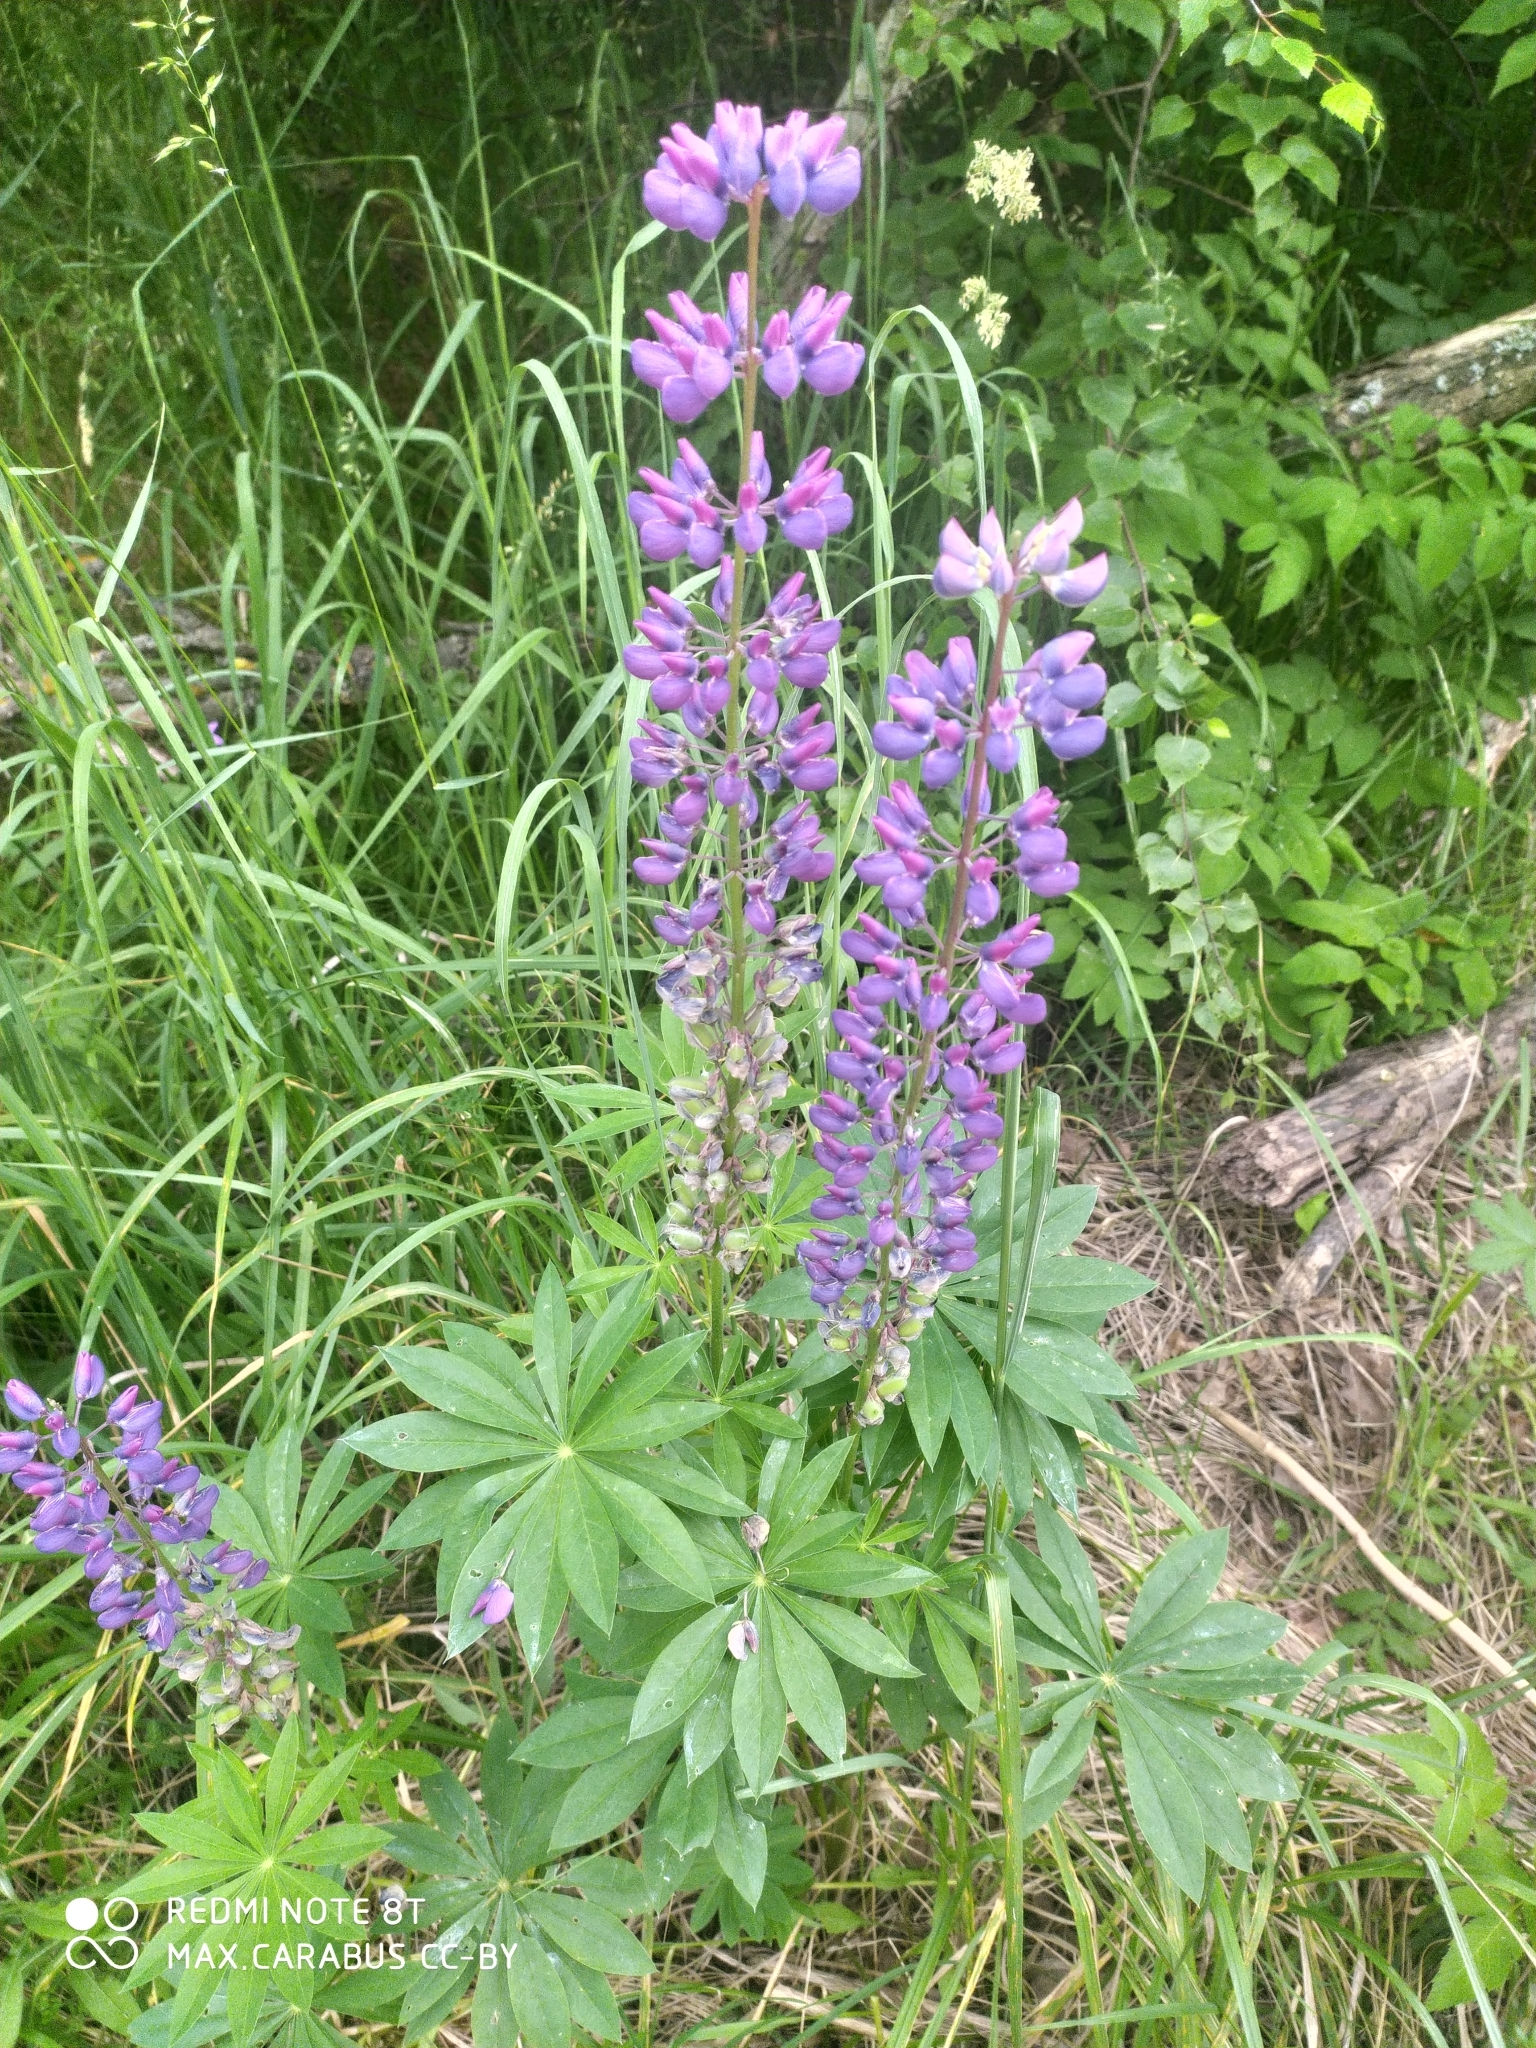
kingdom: Plantae
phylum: Tracheophyta
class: Magnoliopsida
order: Fabales
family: Fabaceae
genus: Lupinus
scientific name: Lupinus polyphyllus
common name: Garden lupin
